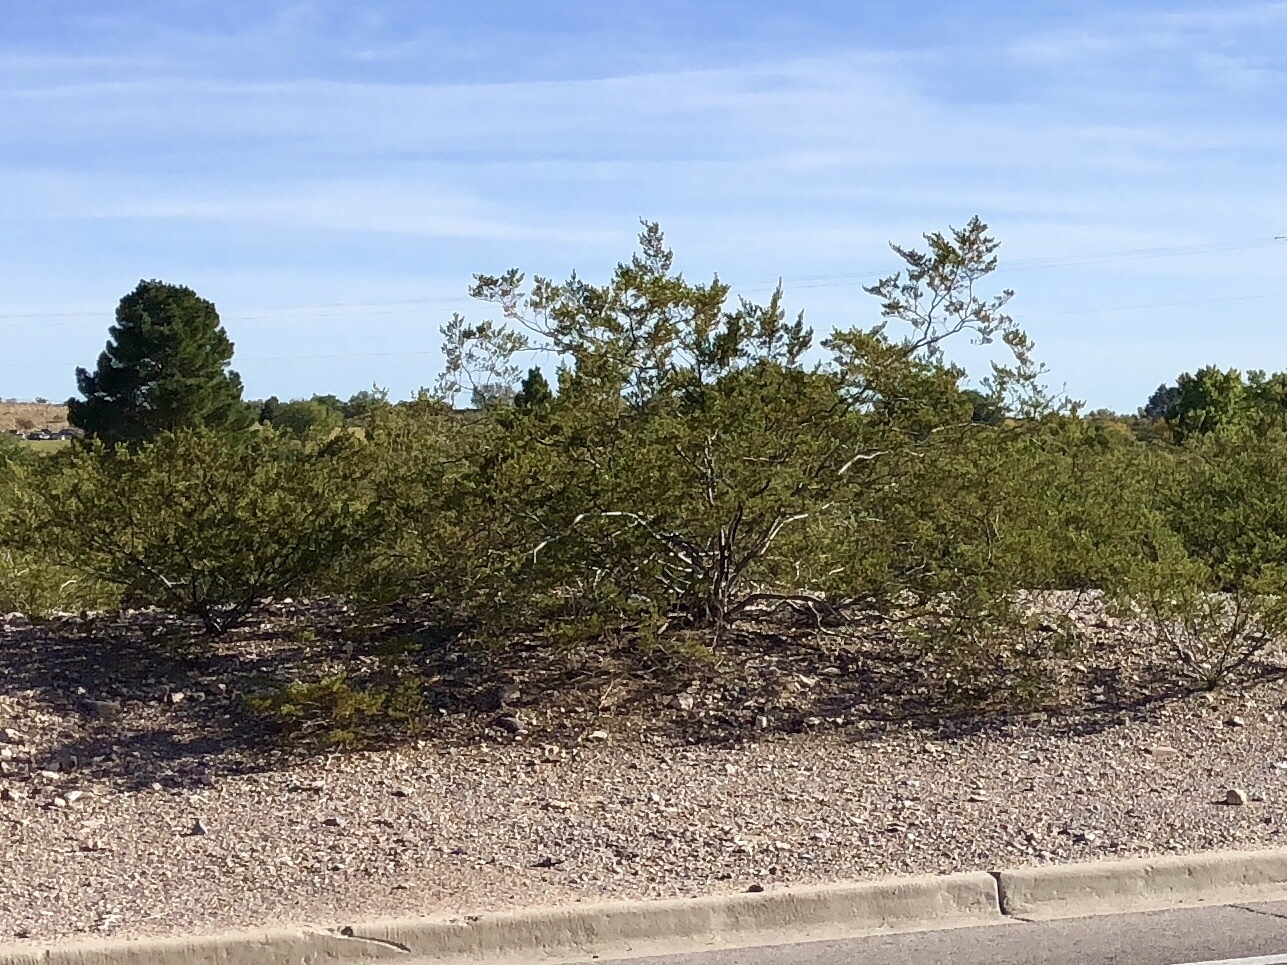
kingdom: Plantae
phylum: Tracheophyta
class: Magnoliopsida
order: Zygophyllales
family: Zygophyllaceae
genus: Larrea
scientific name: Larrea tridentata
